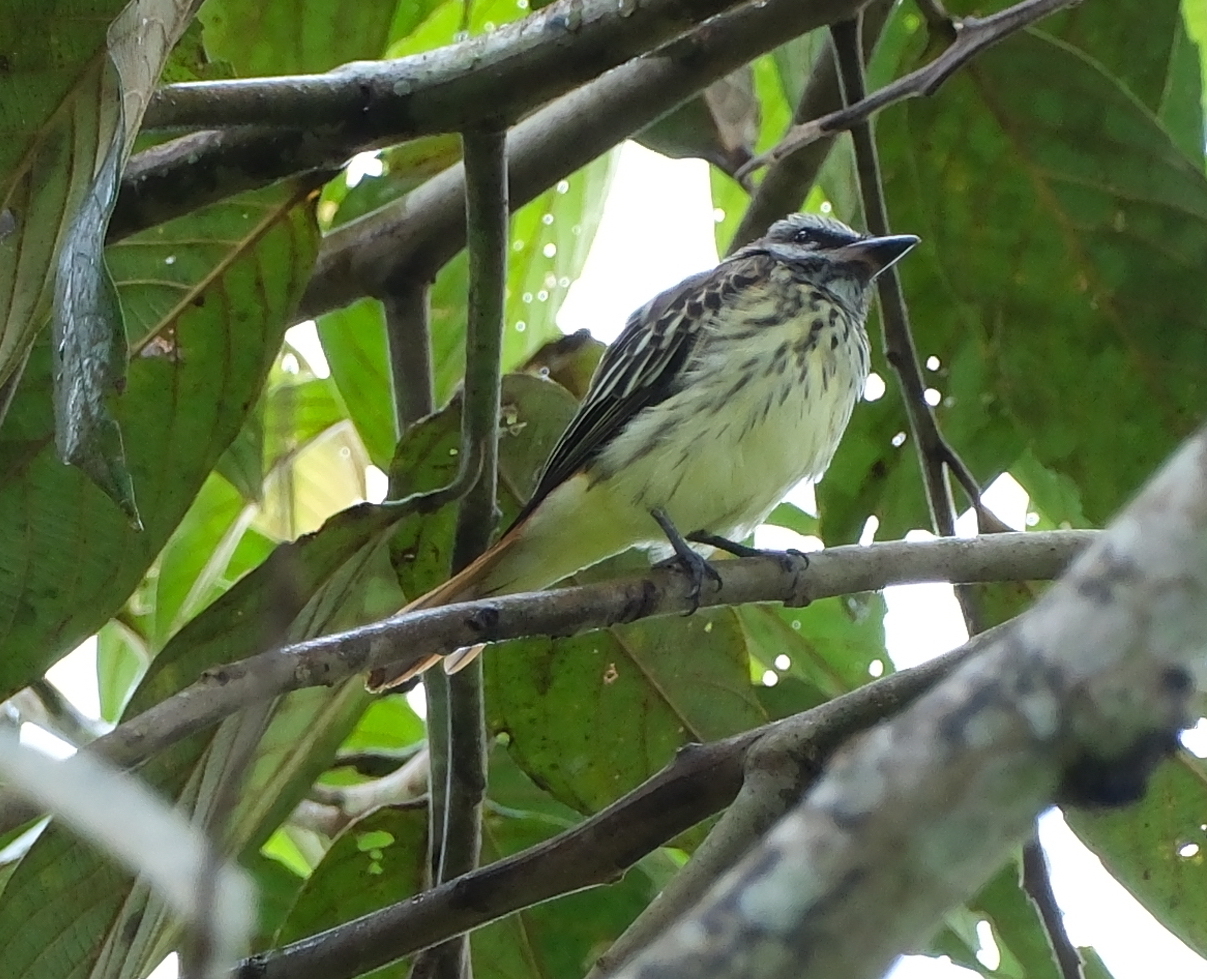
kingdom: Animalia
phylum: Chordata
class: Aves
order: Passeriformes
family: Tyrannidae
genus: Myiodynastes
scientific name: Myiodynastes luteiventris
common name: Sulphur-bellied flycatcher
